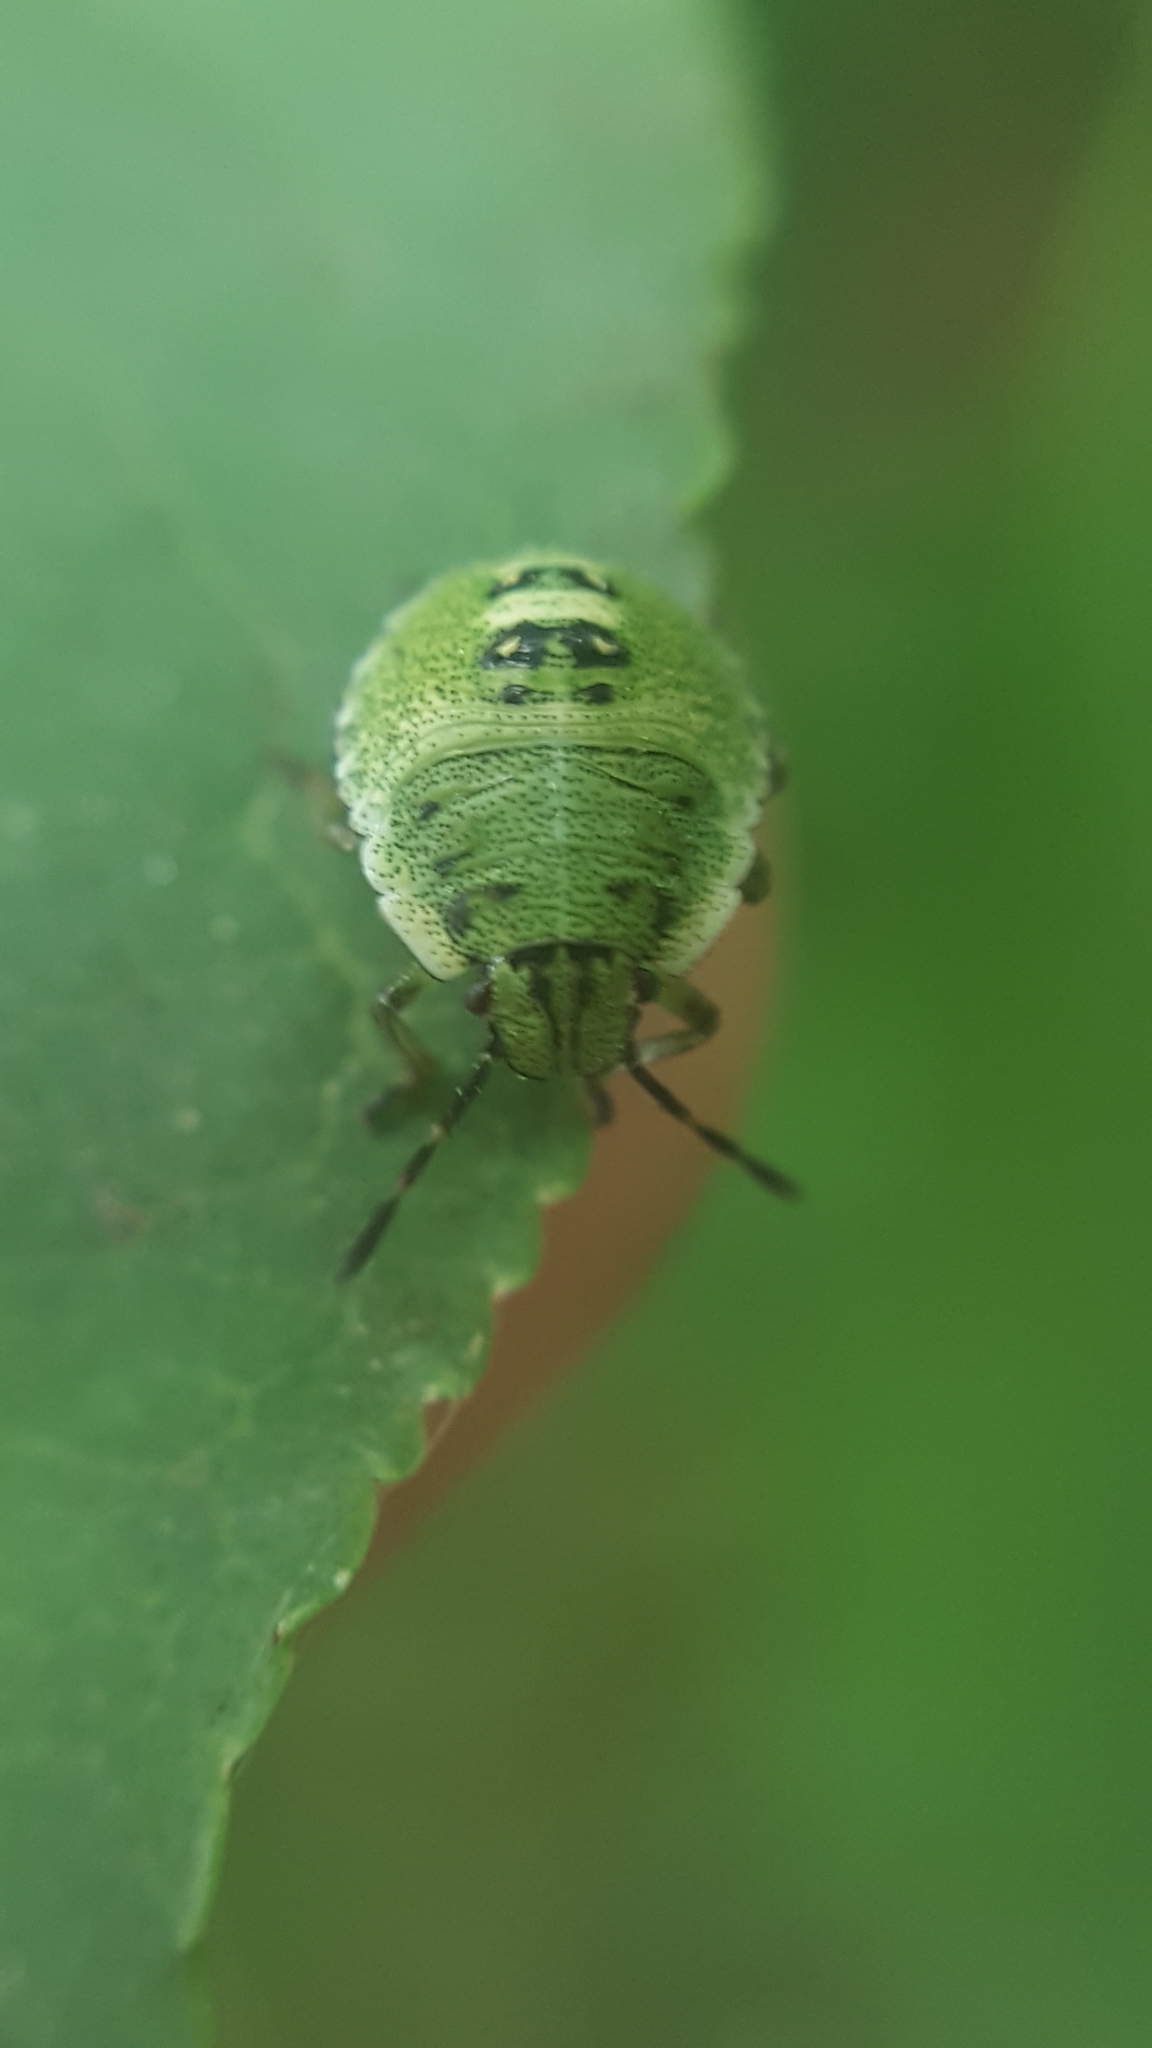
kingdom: Animalia
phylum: Arthropoda
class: Insecta
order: Hemiptera
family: Pentatomidae
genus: Palomena
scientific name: Palomena prasina
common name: Green shieldbug
